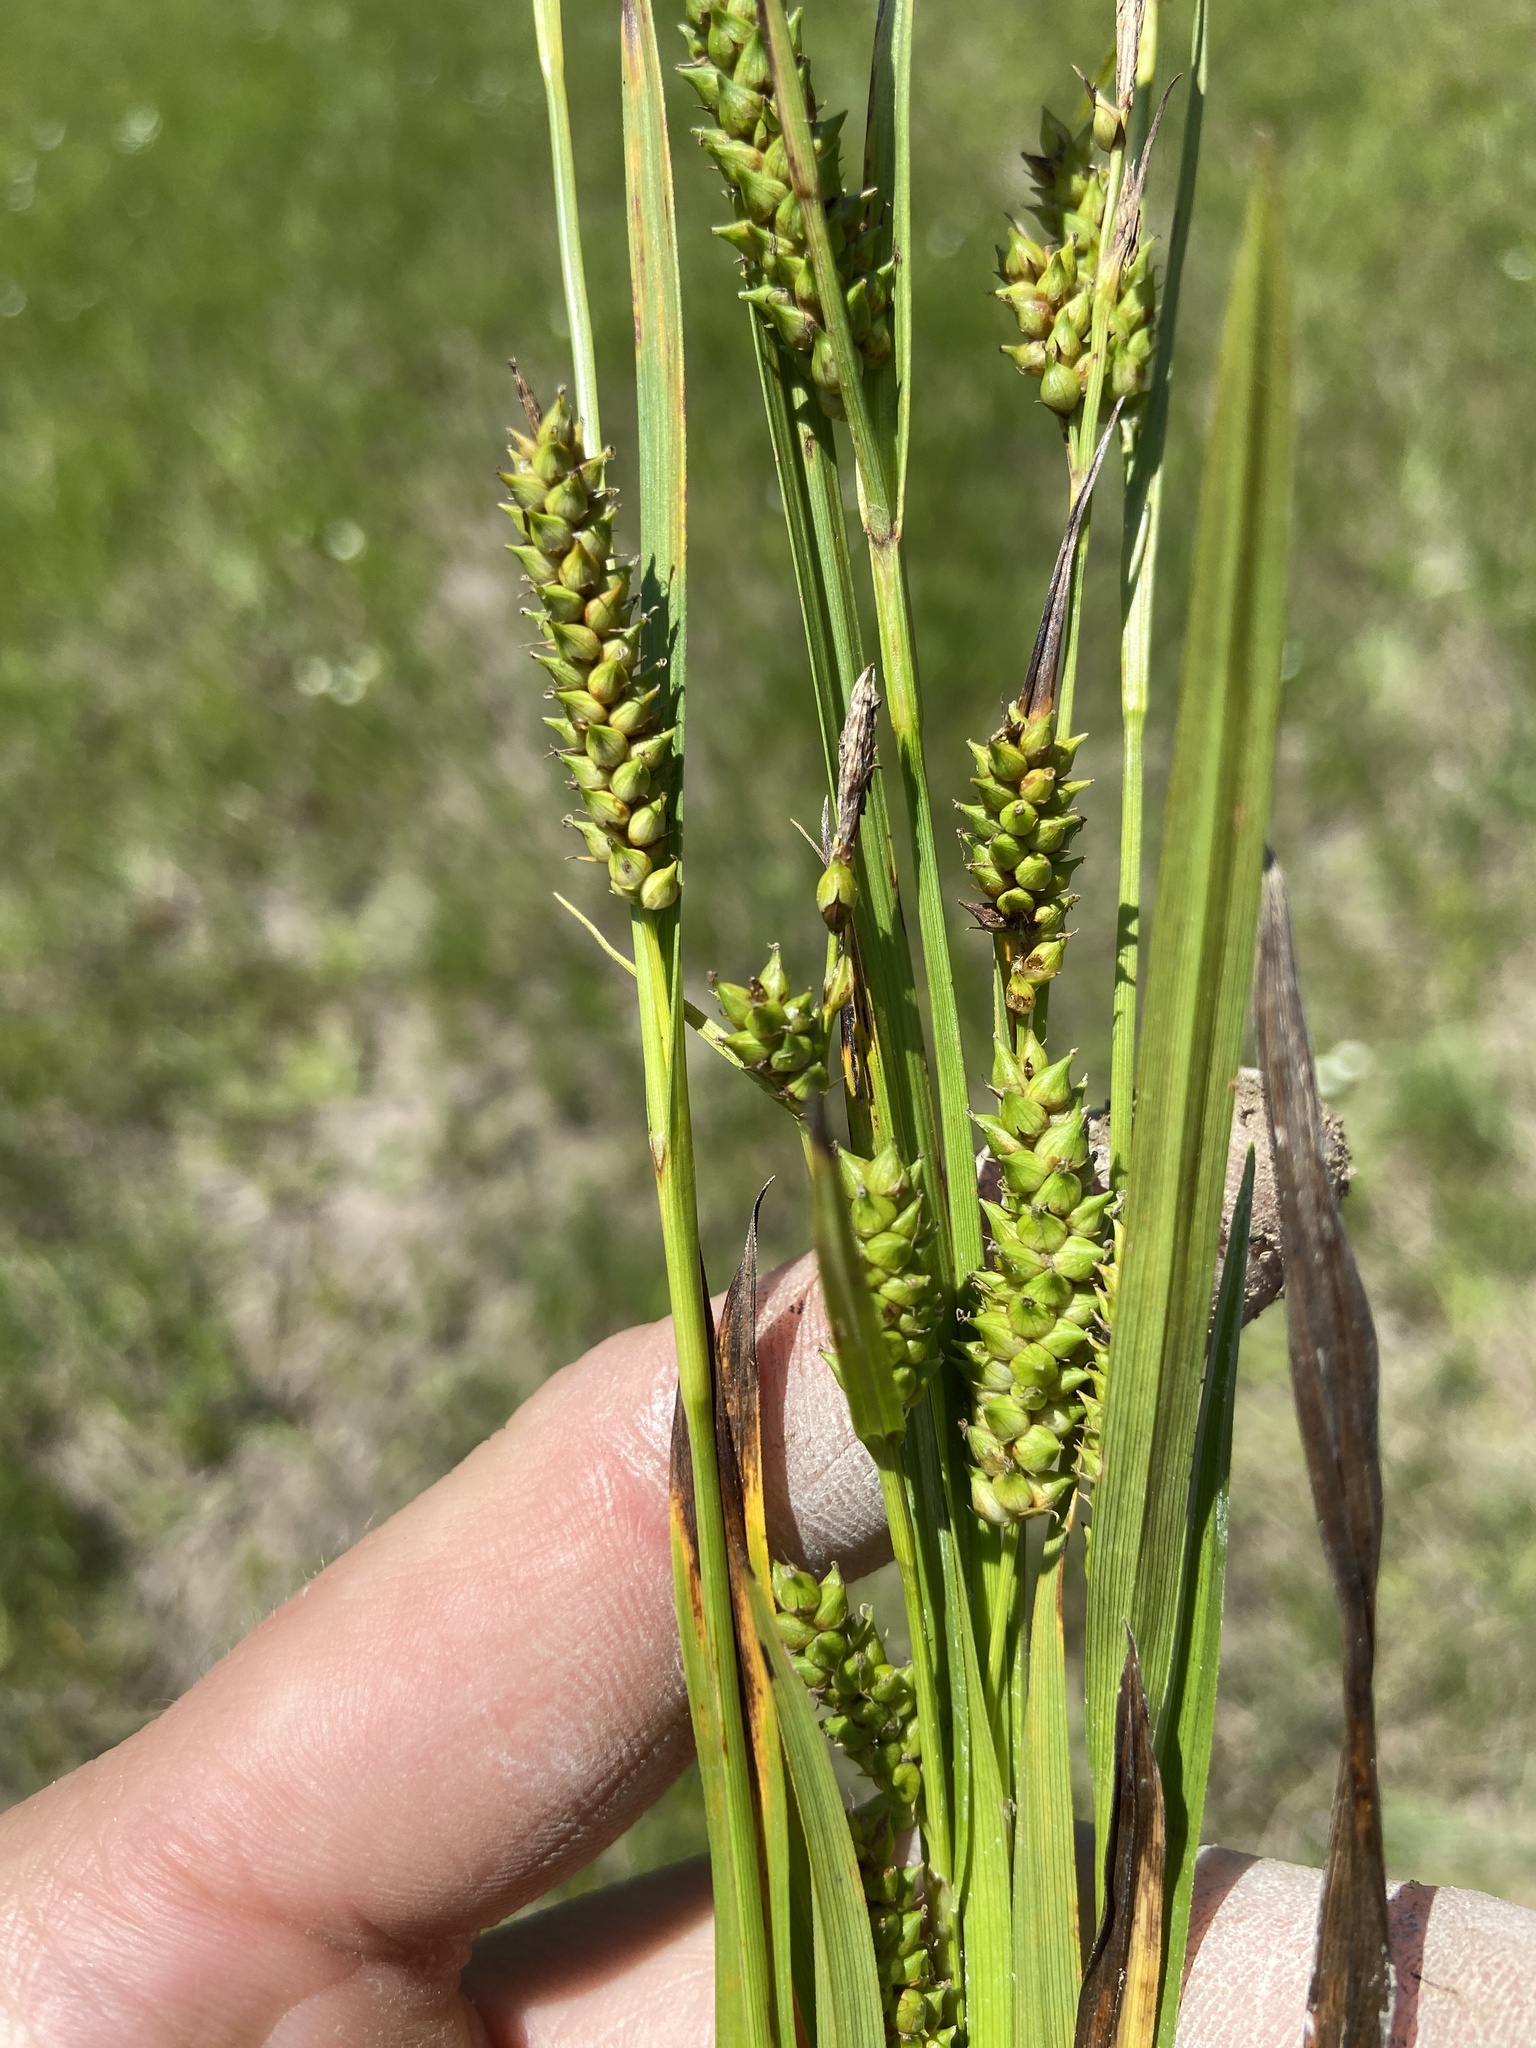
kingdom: Plantae
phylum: Tracheophyta
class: Liliopsida
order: Poales
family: Cyperaceae
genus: Carex
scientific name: Carex microdonta
